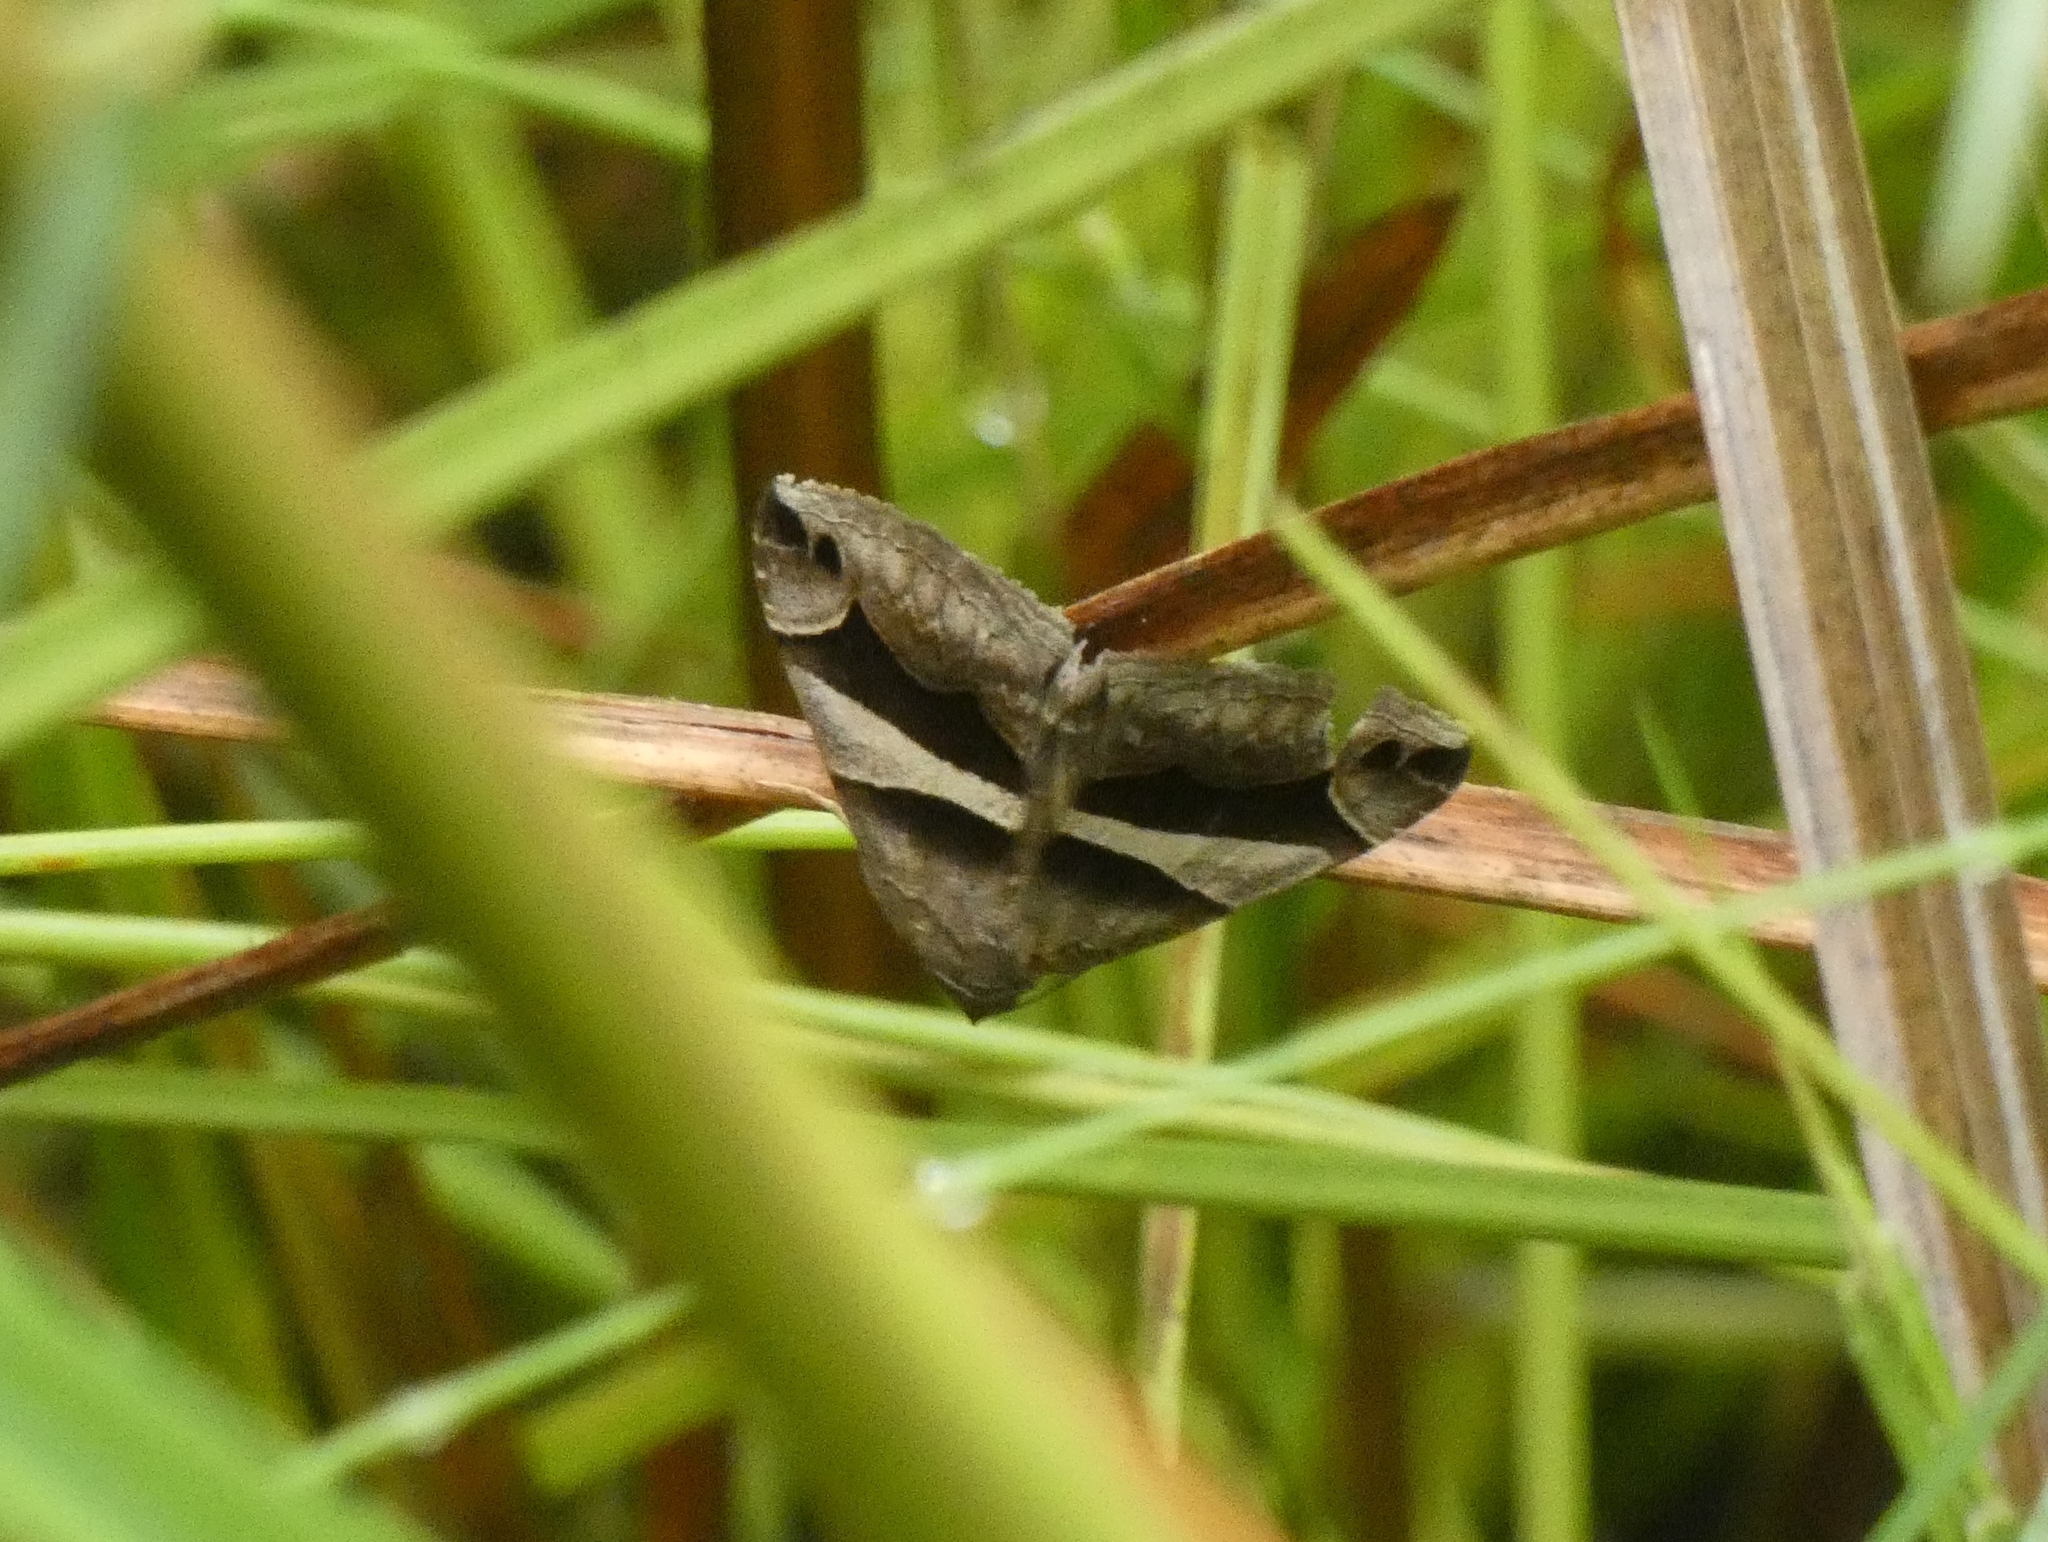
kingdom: Animalia
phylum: Arthropoda
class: Insecta
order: Lepidoptera
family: Erebidae
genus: Dysgonia
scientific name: Dysgonia torrida
